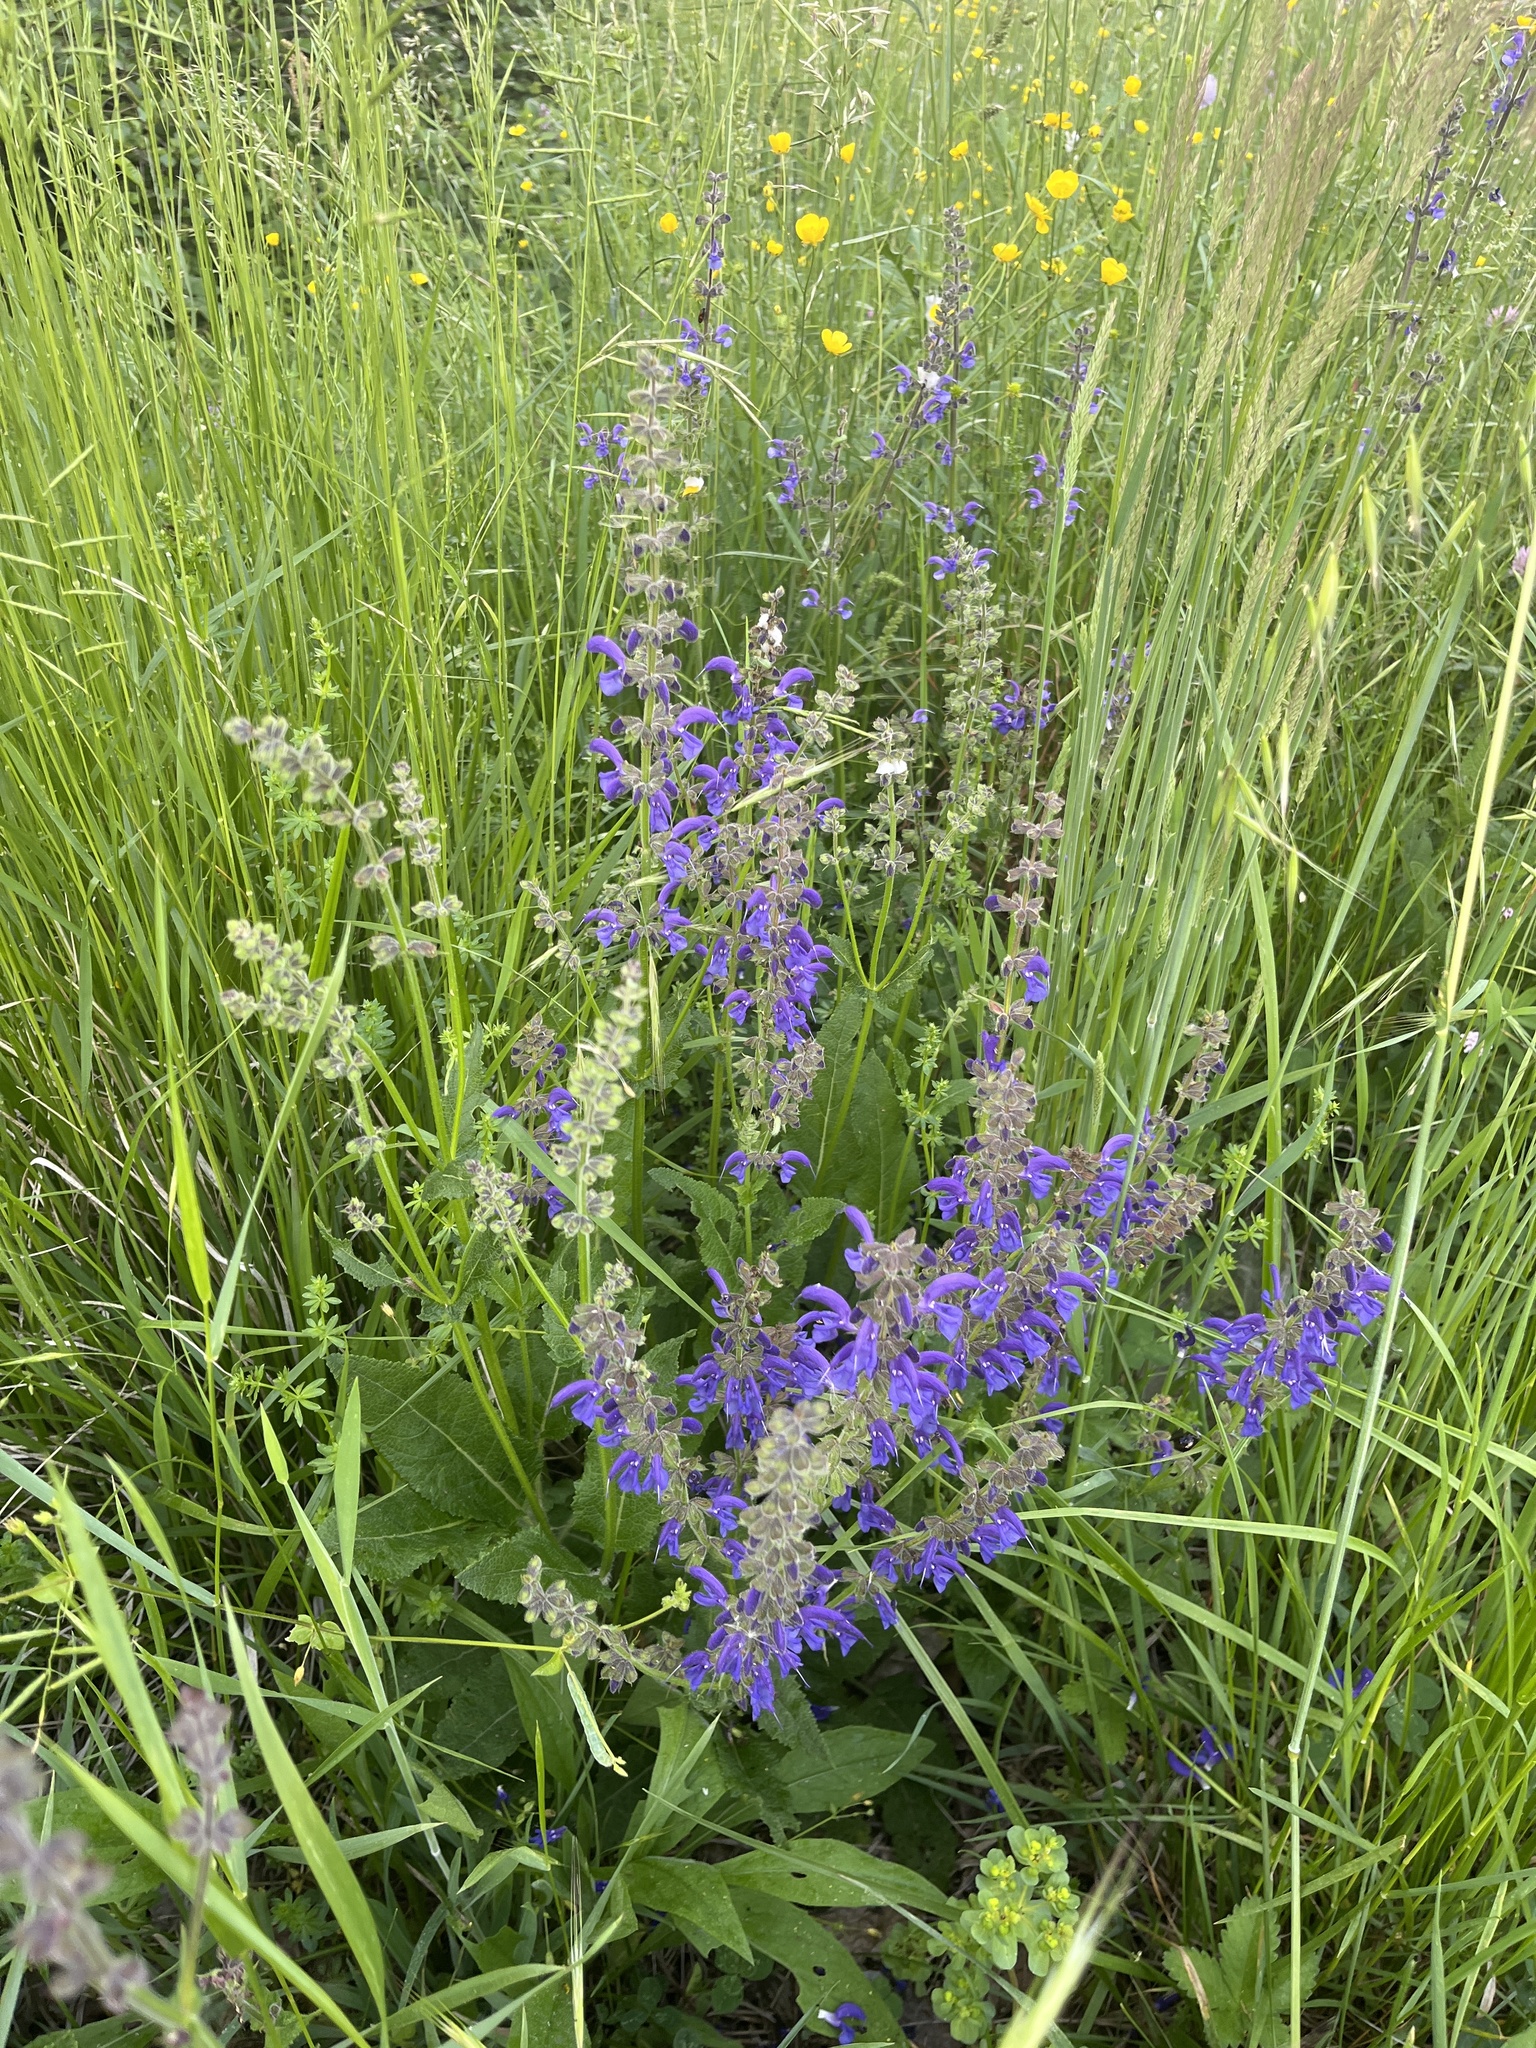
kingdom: Plantae
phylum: Tracheophyta
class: Magnoliopsida
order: Lamiales
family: Lamiaceae
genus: Salvia
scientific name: Salvia pratensis
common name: Meadow sage
